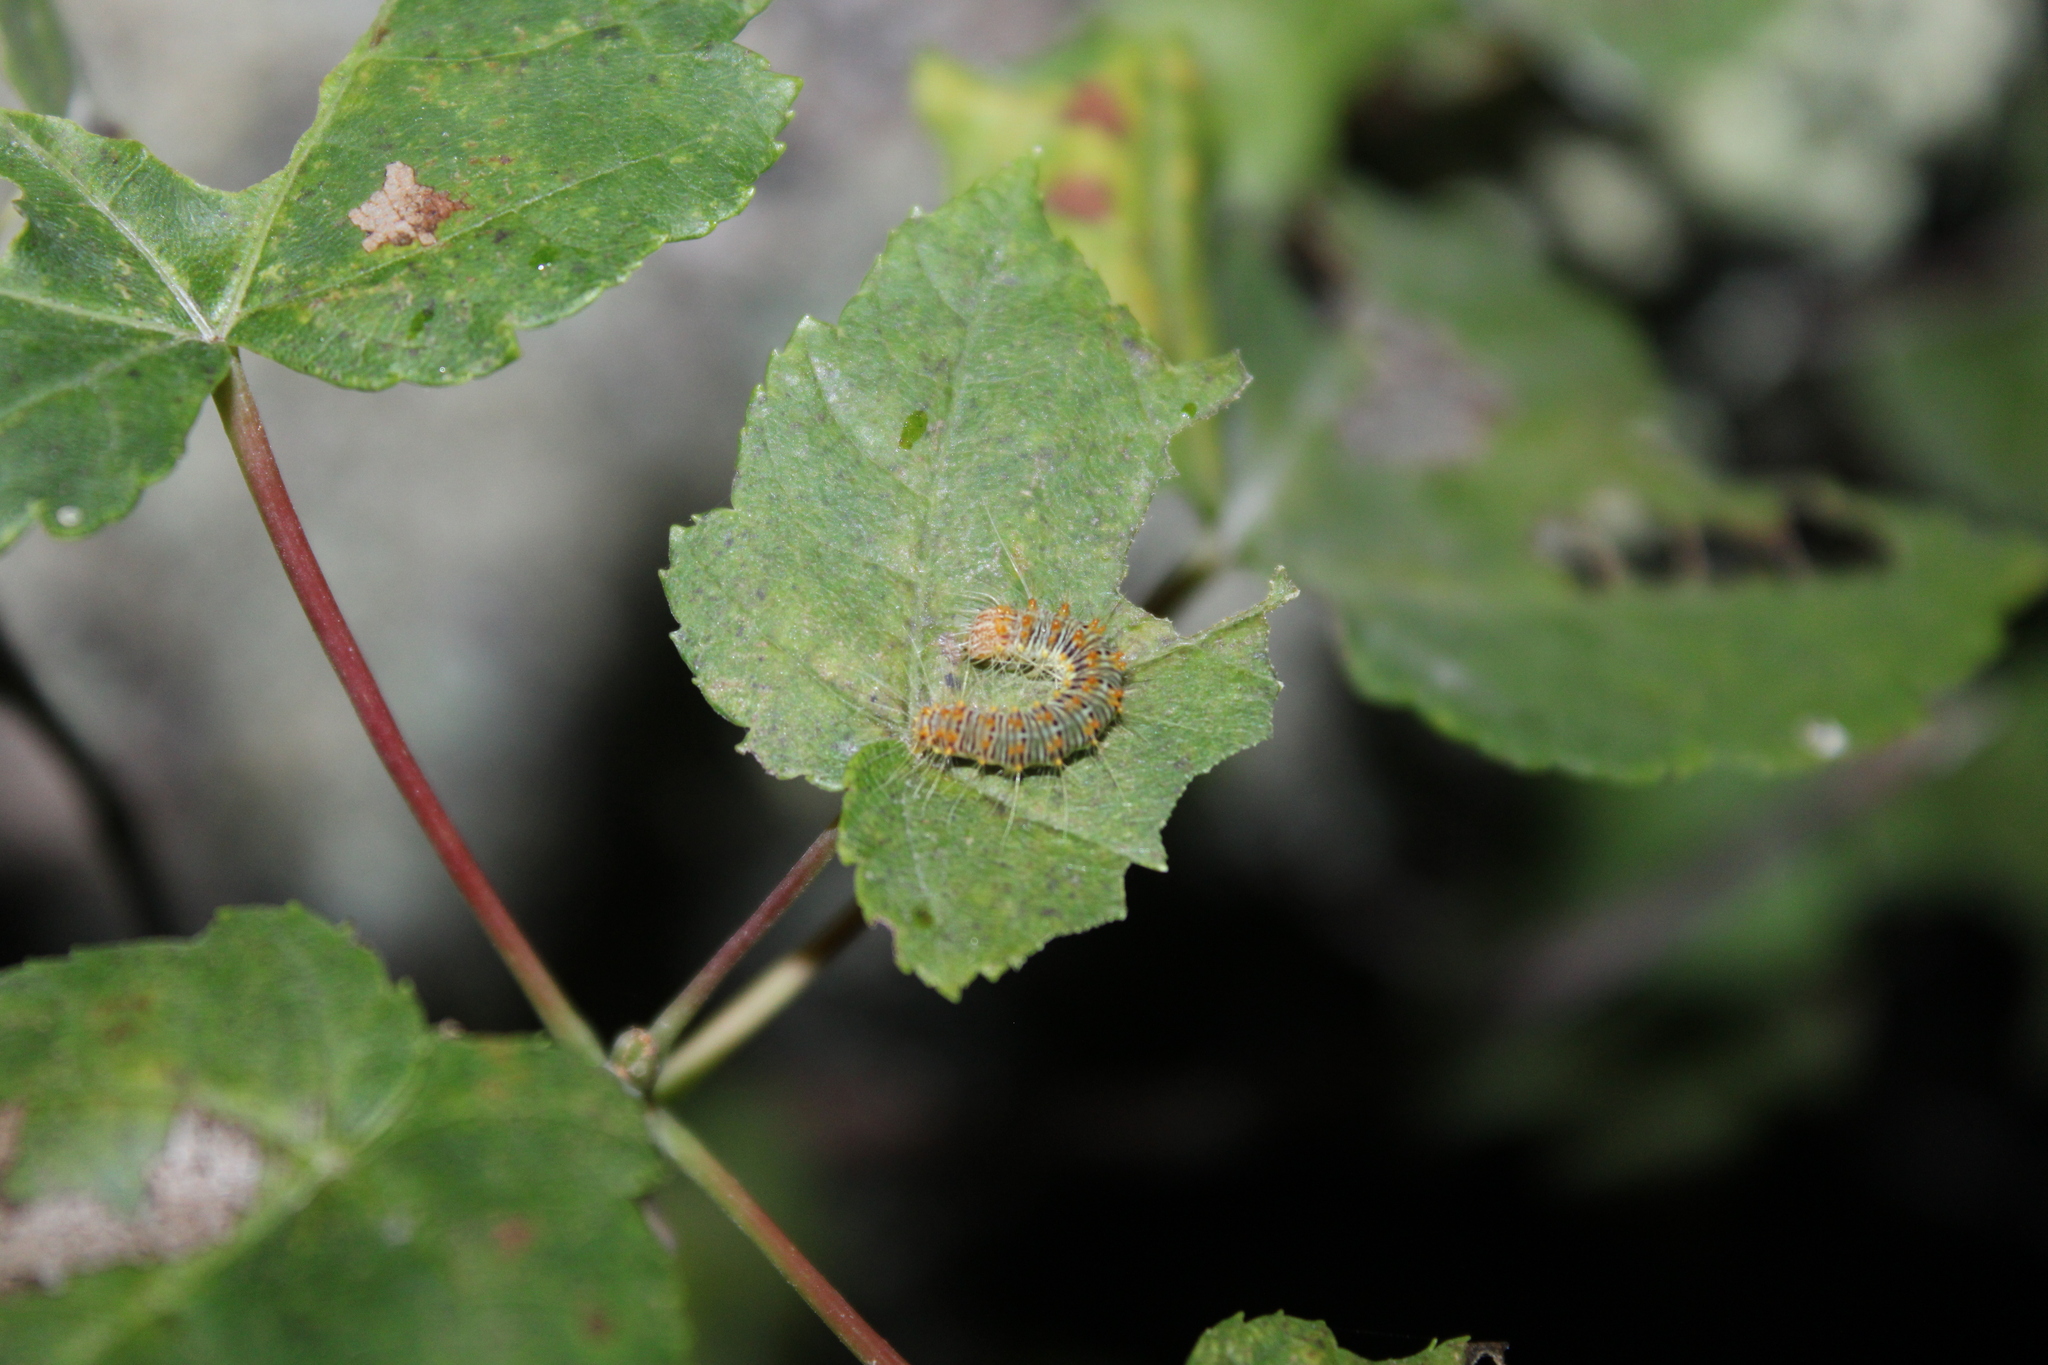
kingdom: Animalia
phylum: Arthropoda
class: Insecta
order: Lepidoptera
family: Noctuidae
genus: Acronicta
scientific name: Acronicta retardata
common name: Maple dagger
